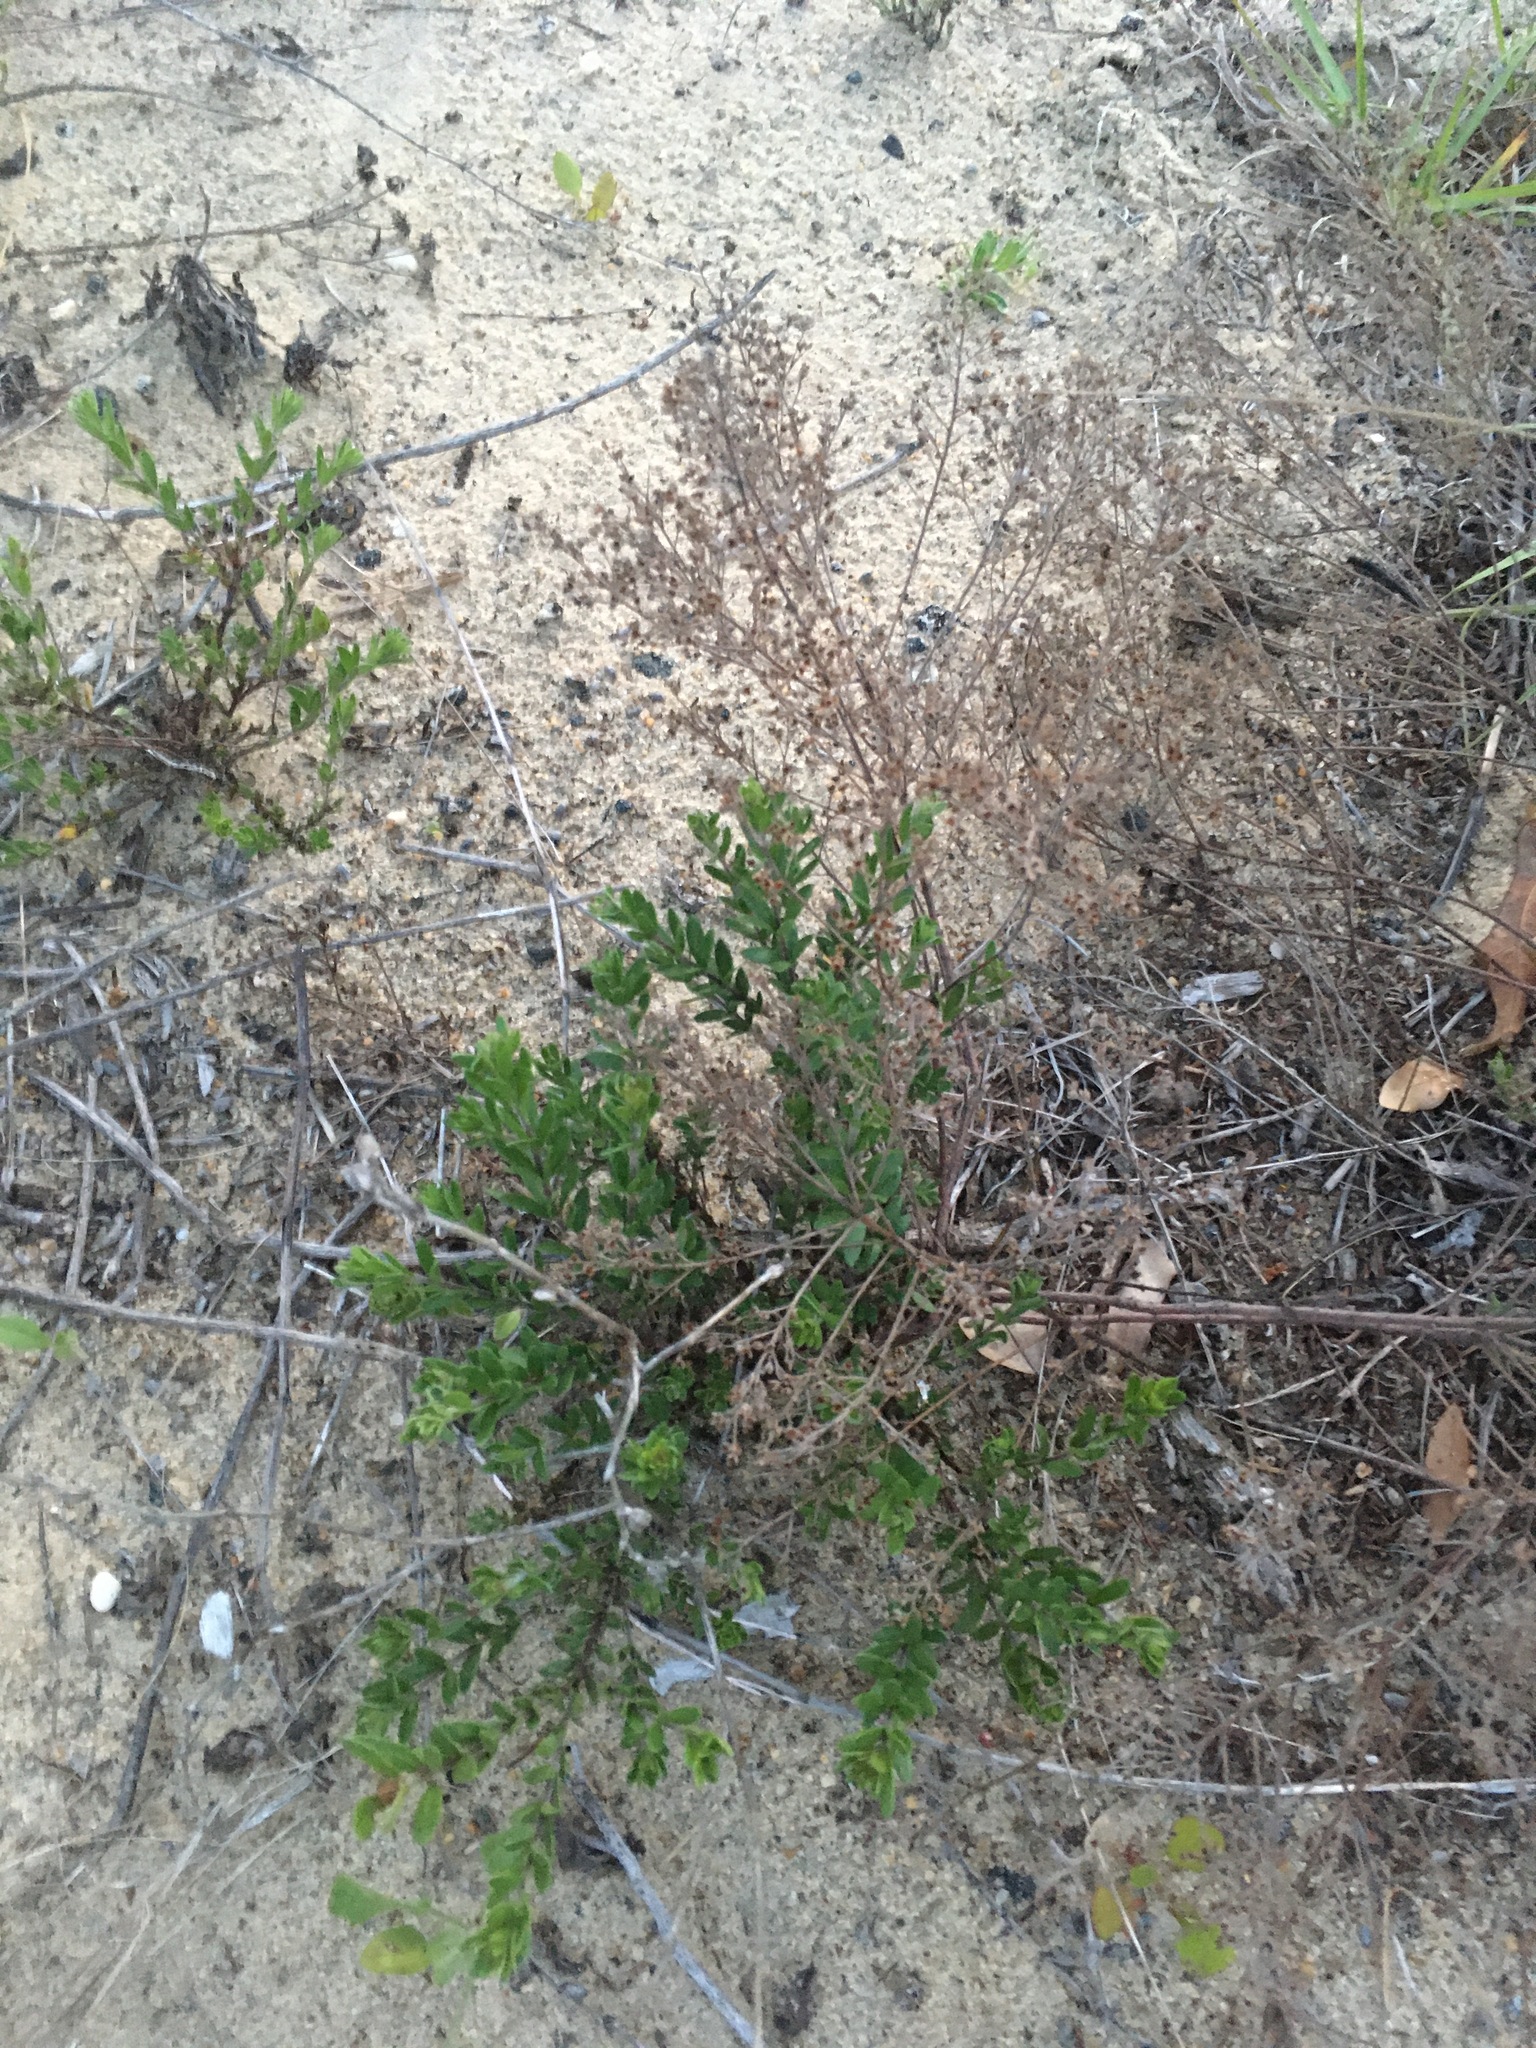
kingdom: Plantae
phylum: Tracheophyta
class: Magnoliopsida
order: Malvales
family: Cistaceae
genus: Lechea
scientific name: Lechea maritima
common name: Beach pinweed
